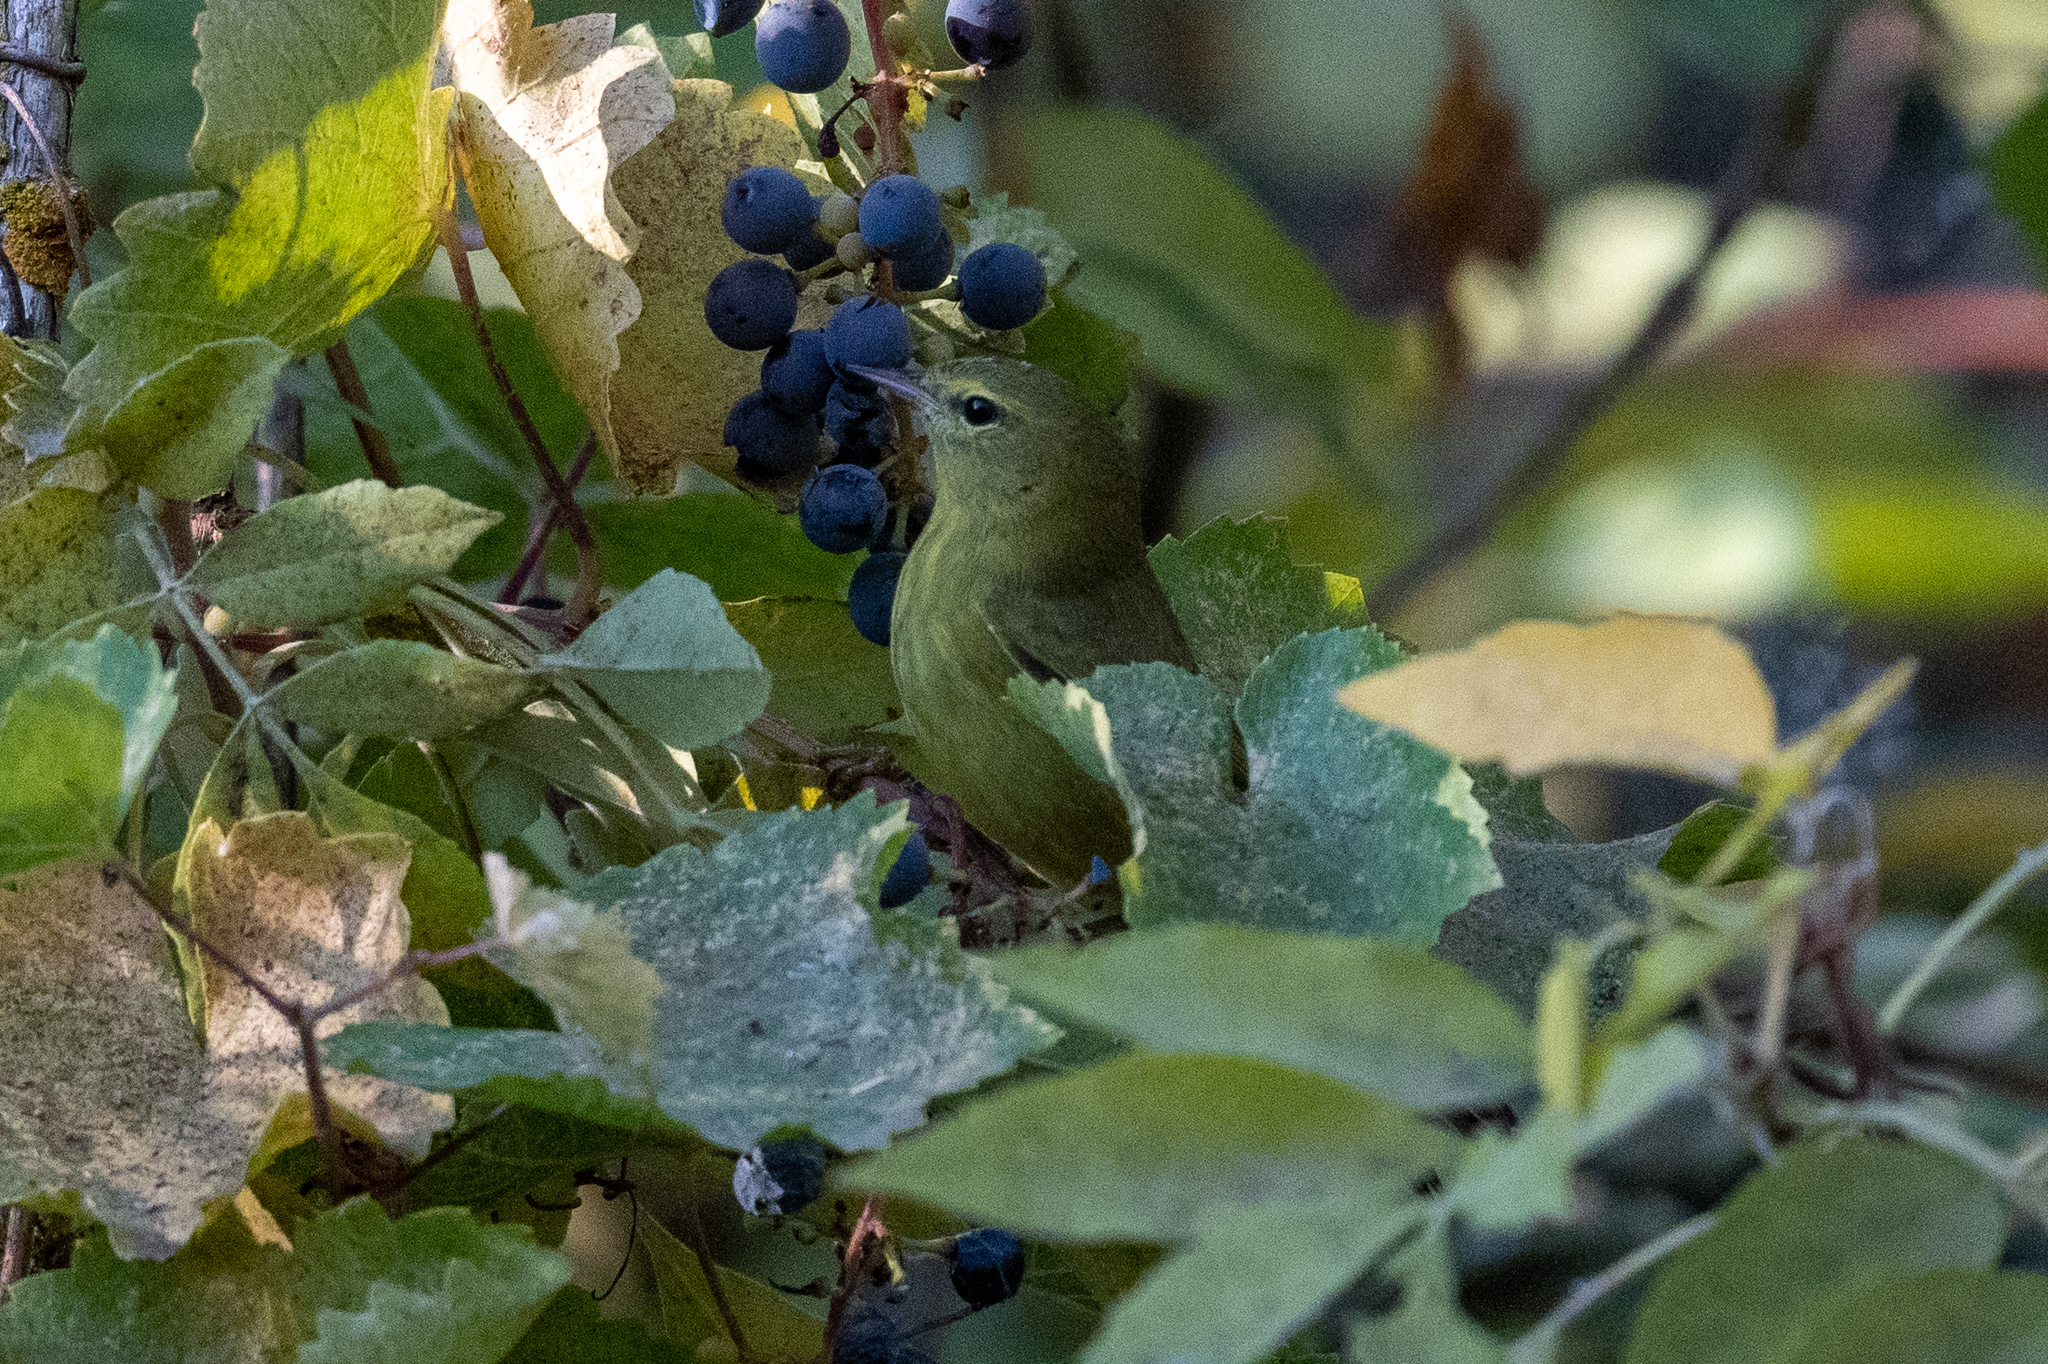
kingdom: Animalia
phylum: Chordata
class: Aves
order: Passeriformes
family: Parulidae
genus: Leiothlypis
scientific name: Leiothlypis celata
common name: Orange-crowned warbler
